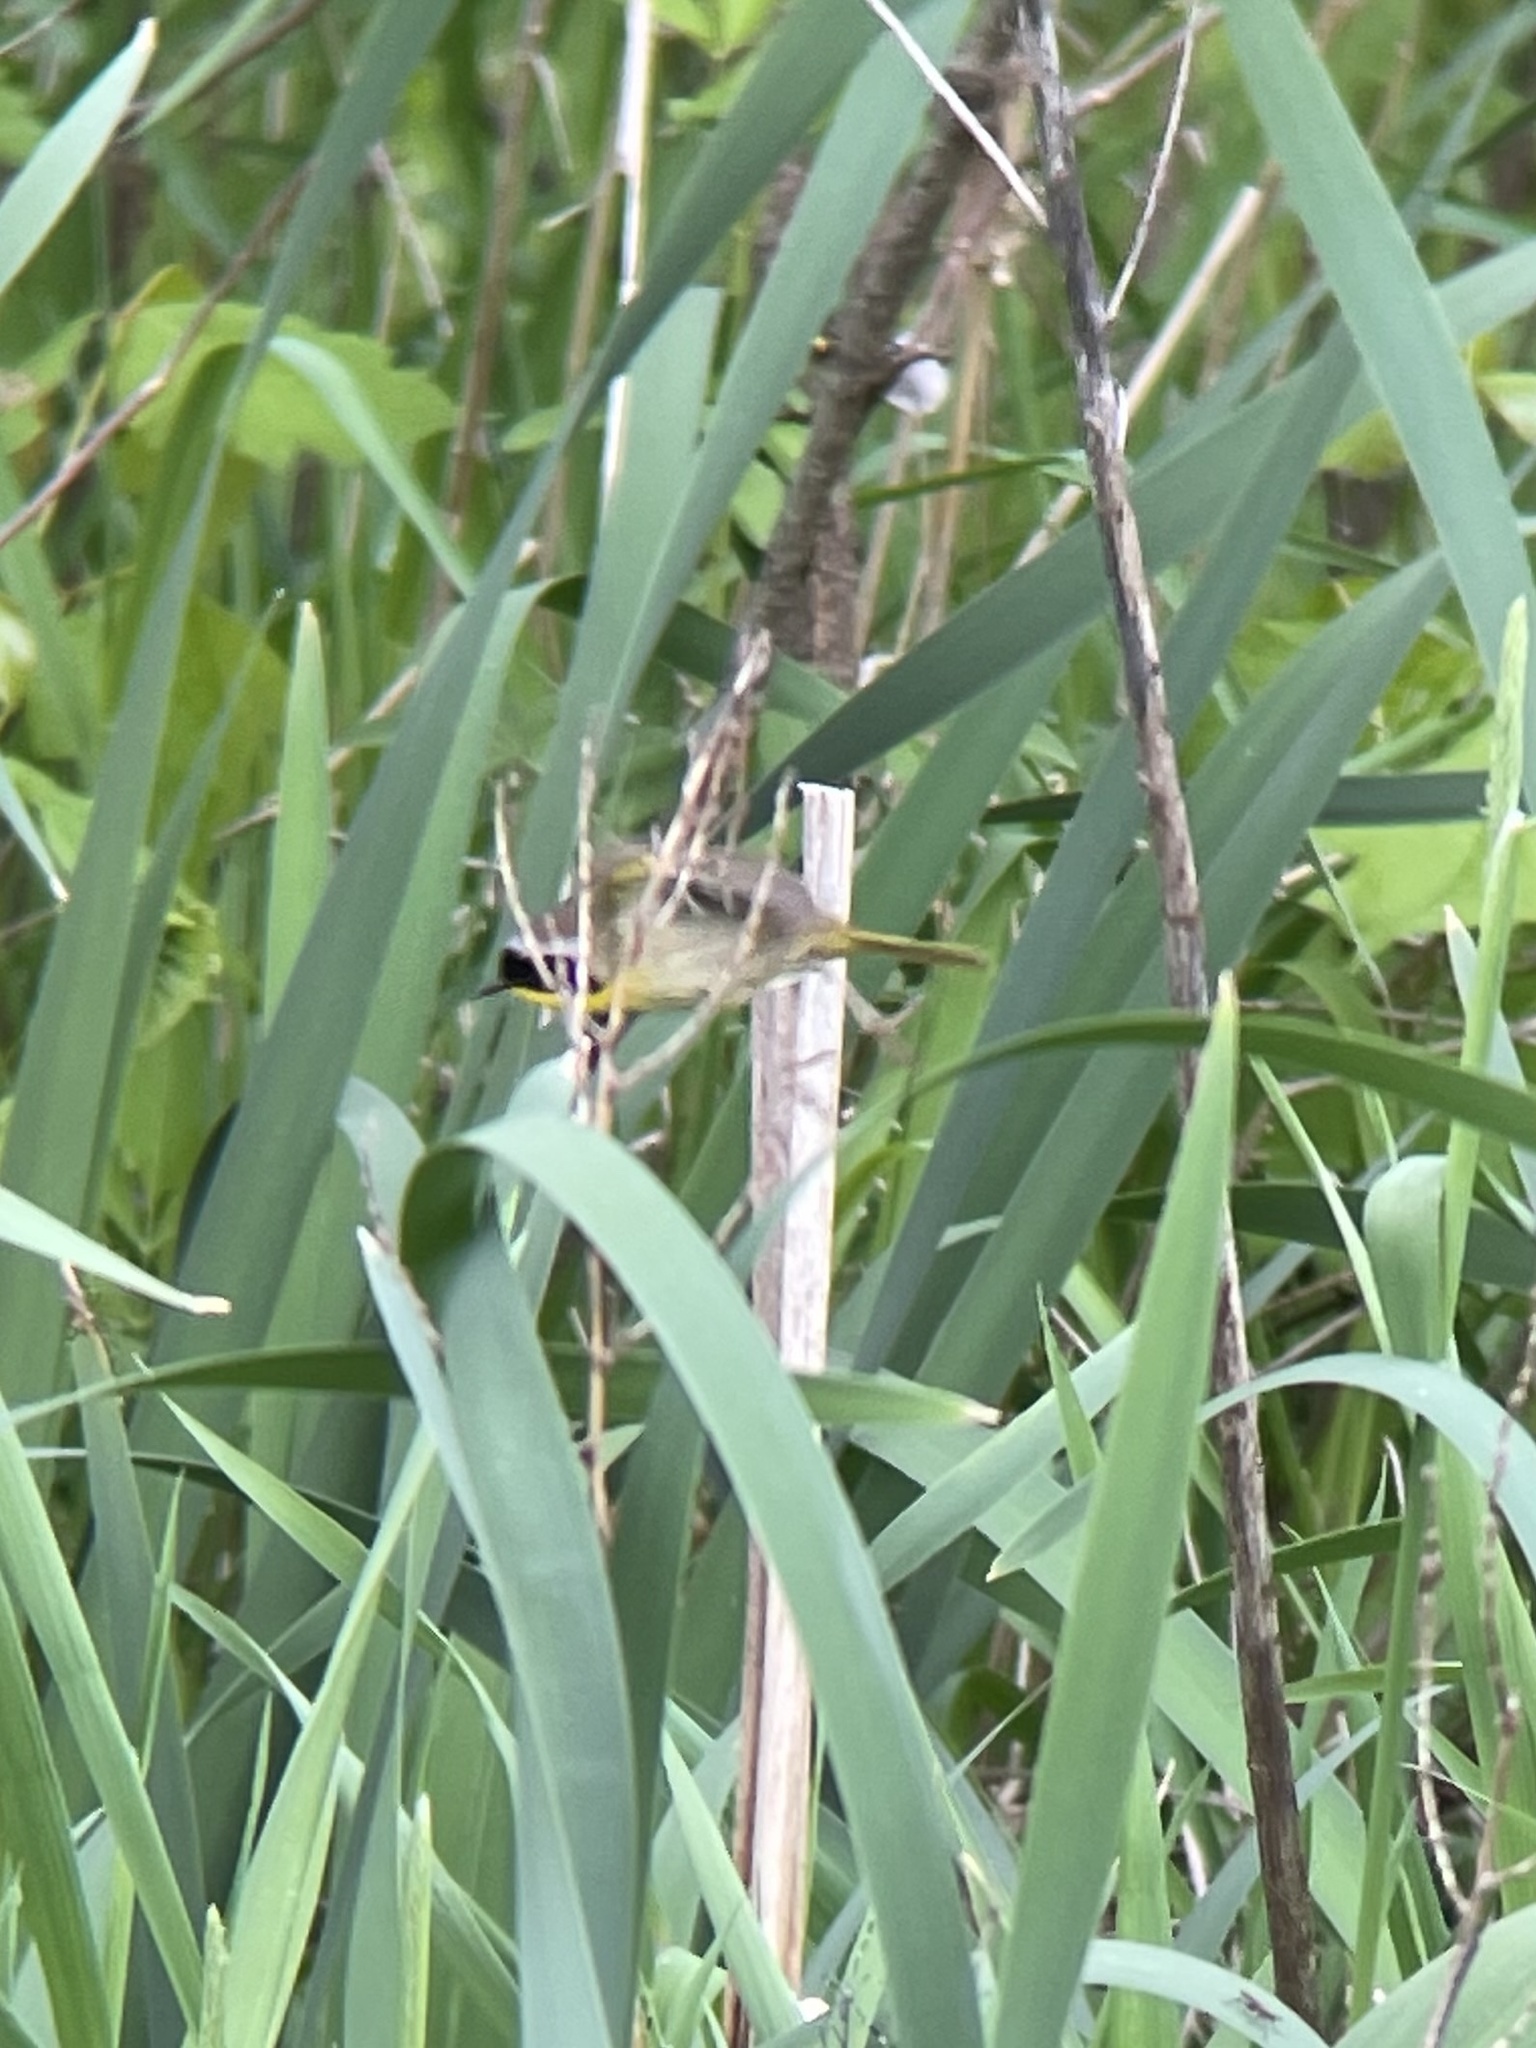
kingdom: Animalia
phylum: Chordata
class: Aves
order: Passeriformes
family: Parulidae
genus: Geothlypis
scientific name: Geothlypis trichas
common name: Common yellowthroat
